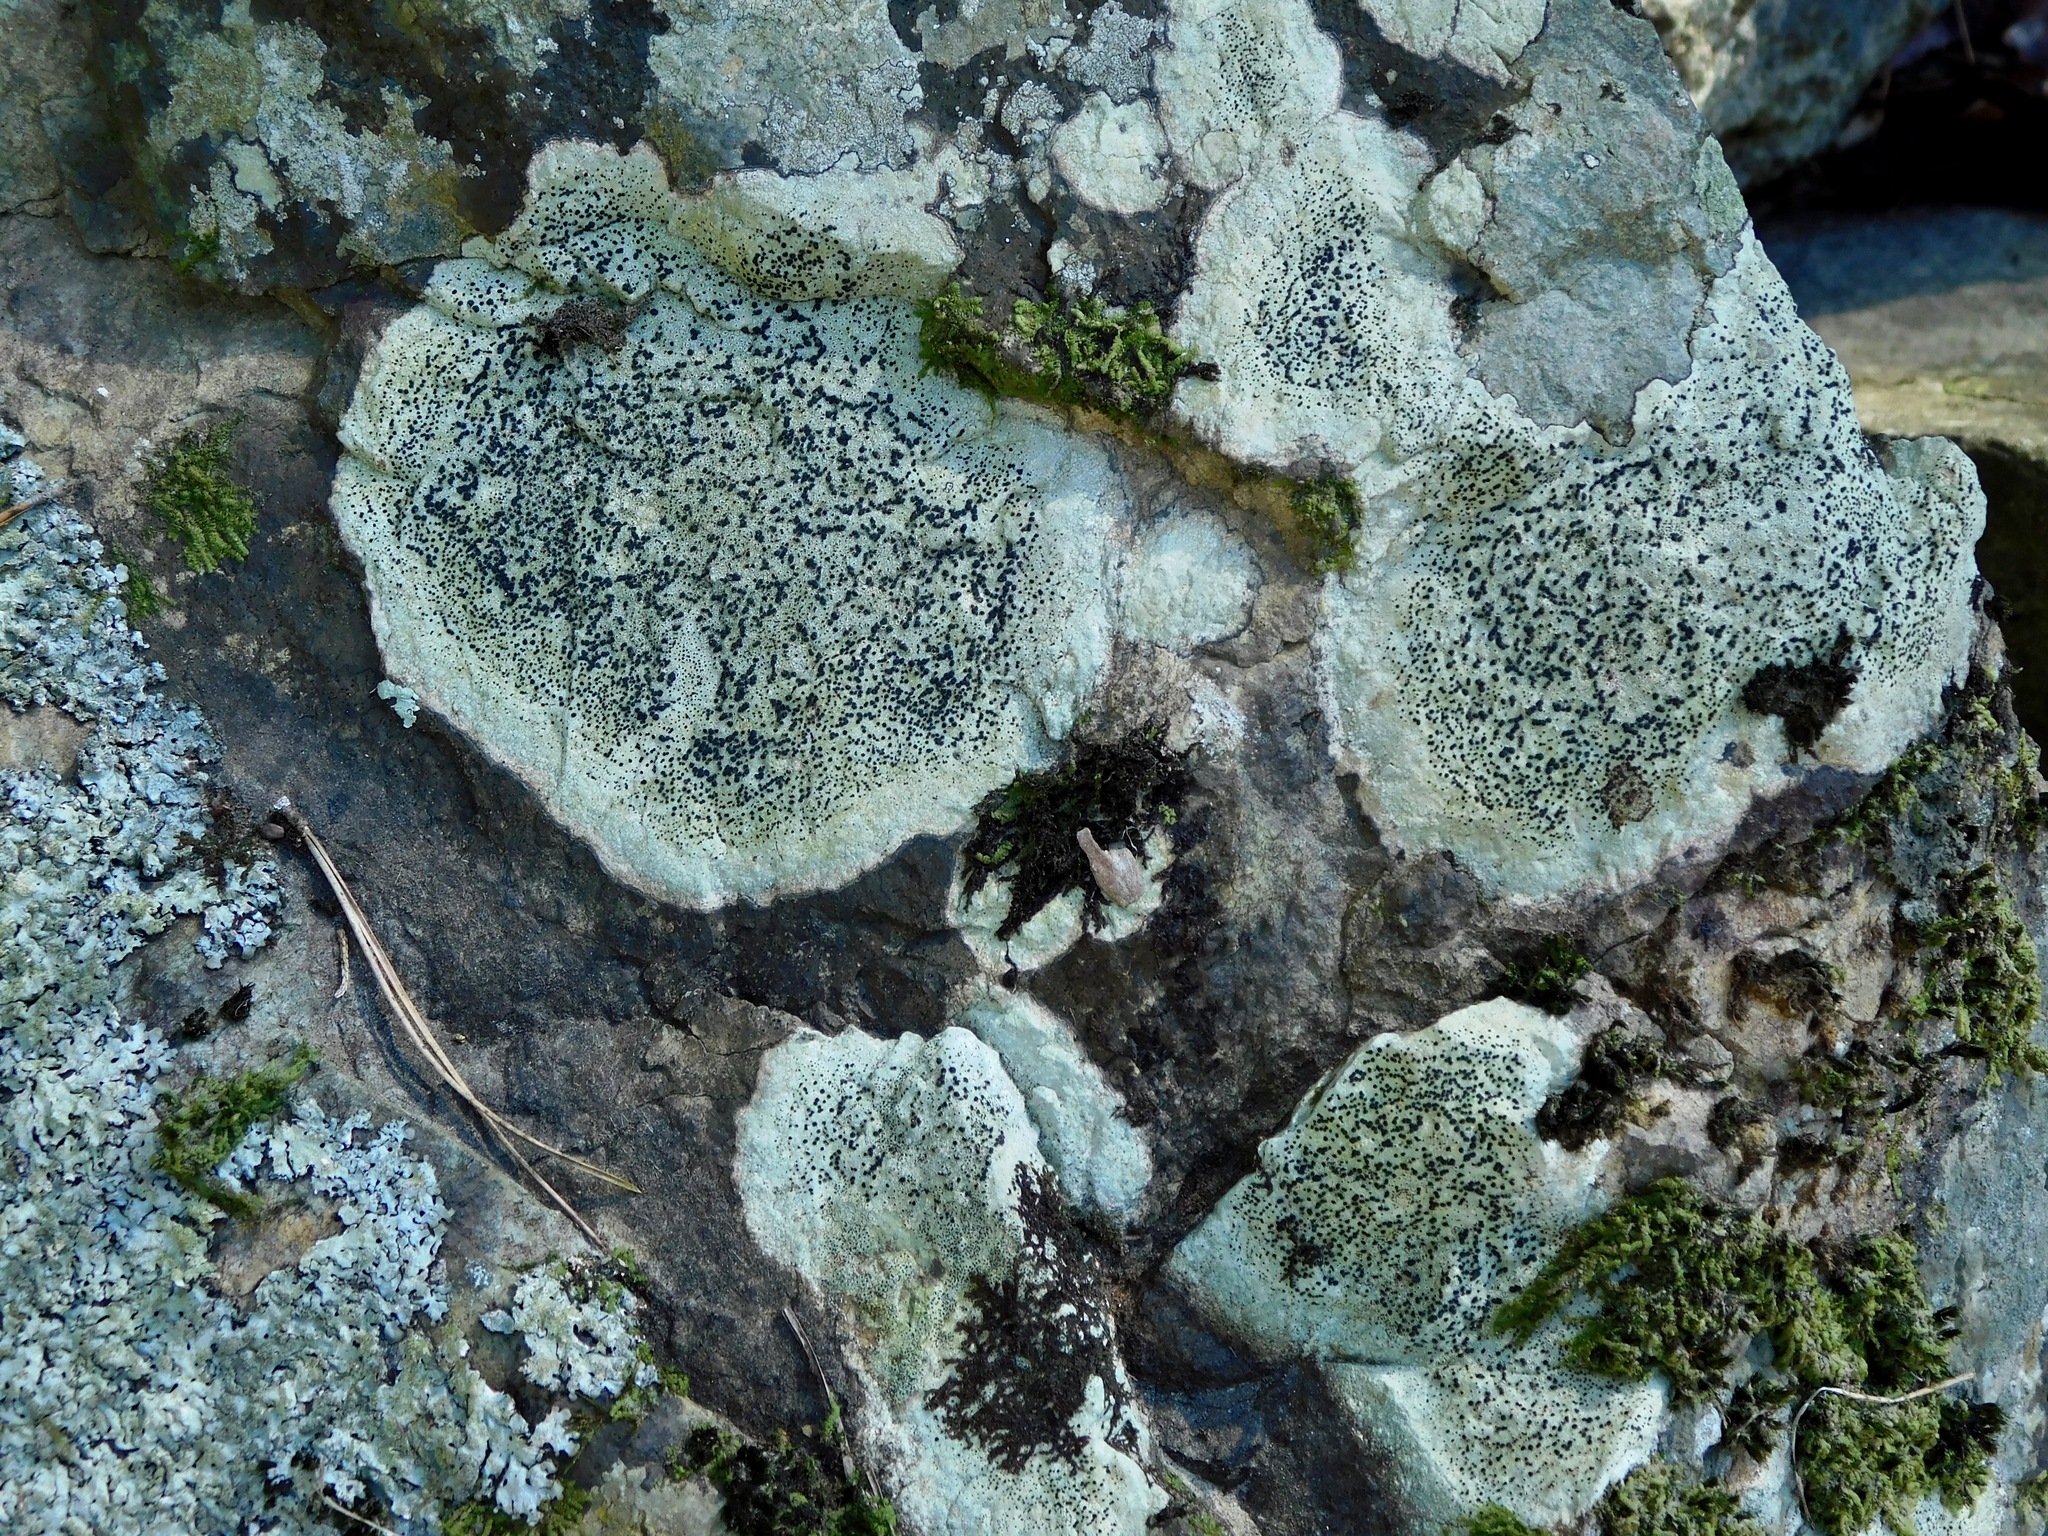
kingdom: Fungi
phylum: Ascomycota
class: Lecanoromycetes
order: Caliciales
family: Caliciaceae
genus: Buellia
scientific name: Buellia mamillana
